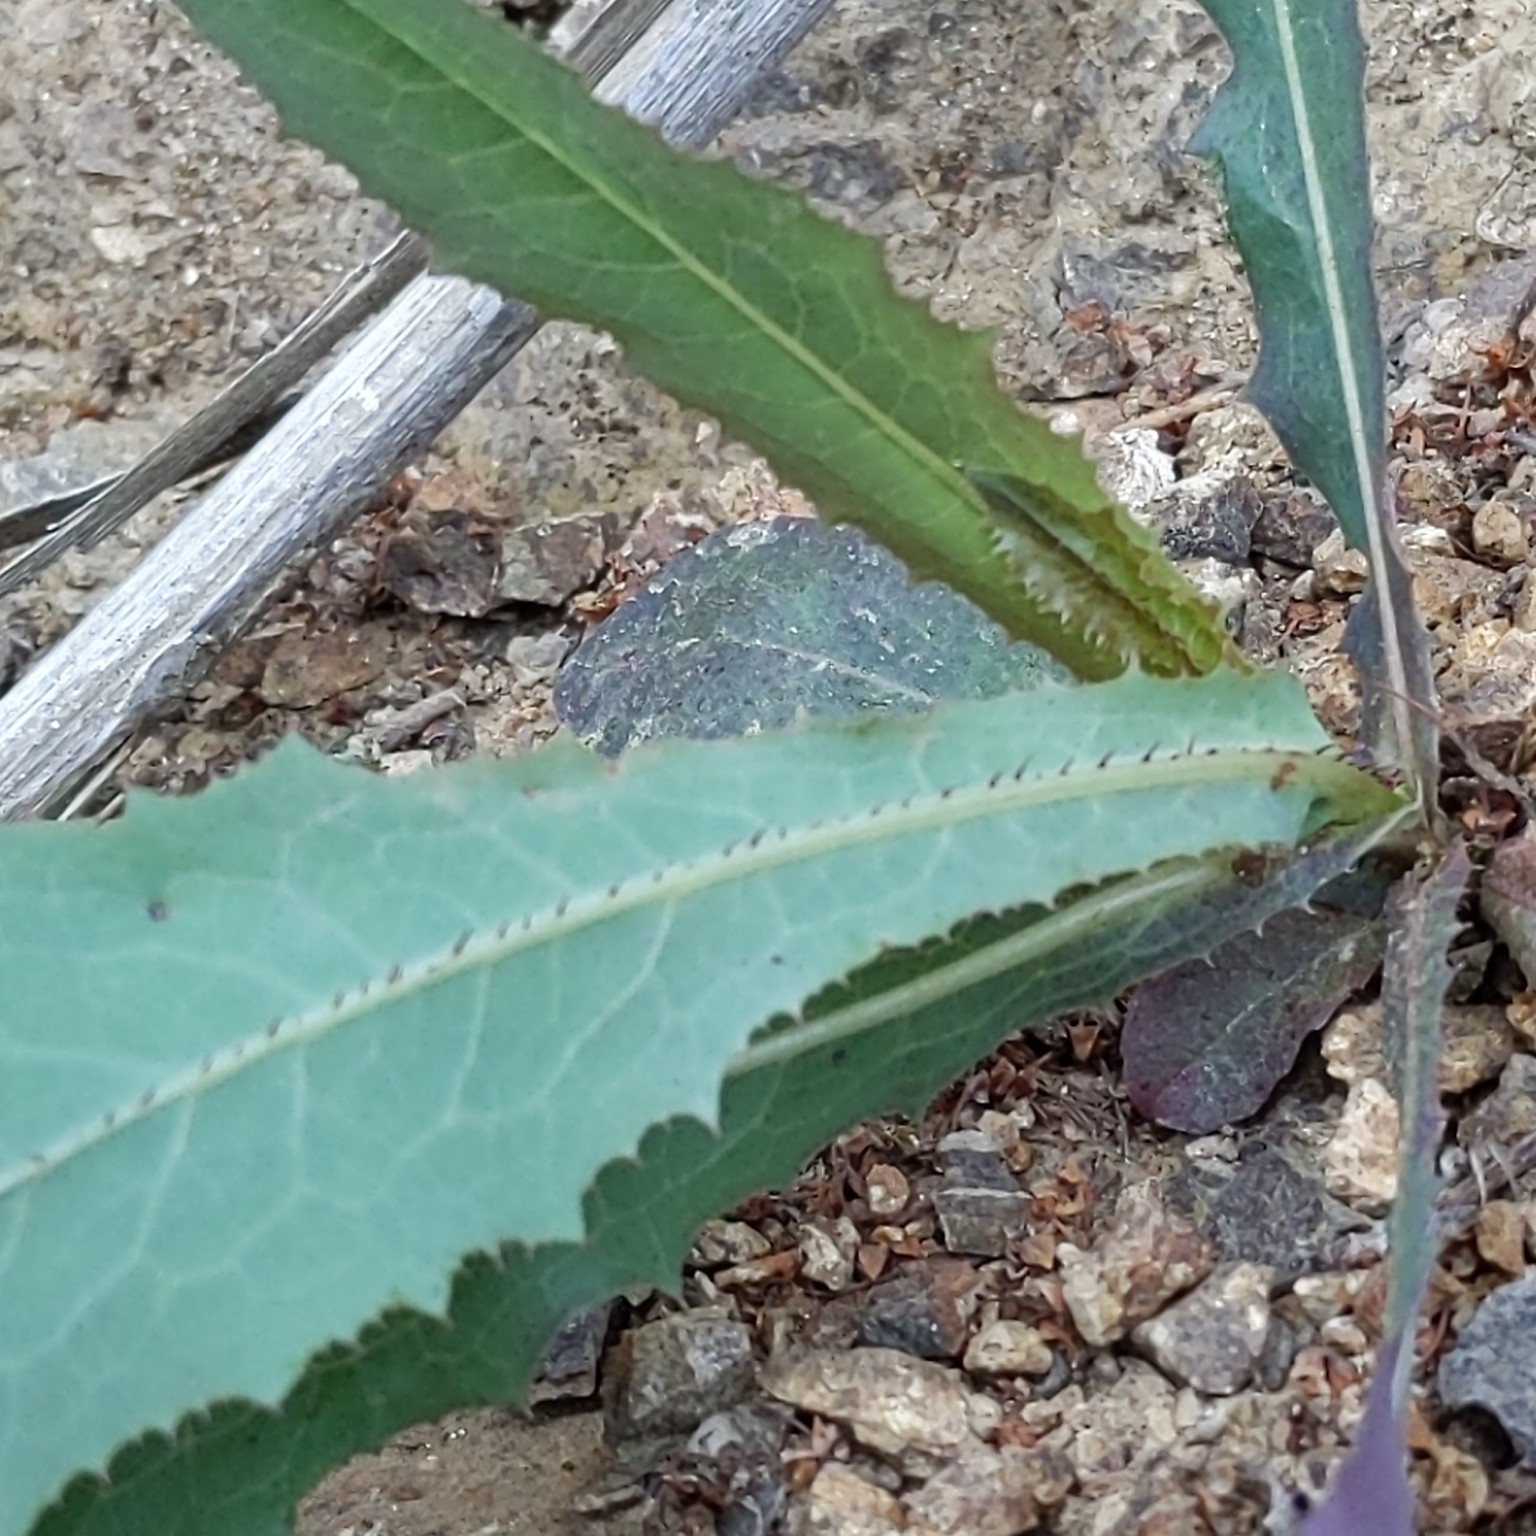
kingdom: Plantae
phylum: Tracheophyta
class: Magnoliopsida
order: Asterales
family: Asteraceae
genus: Lactuca
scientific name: Lactuca serriola
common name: Prickly lettuce
